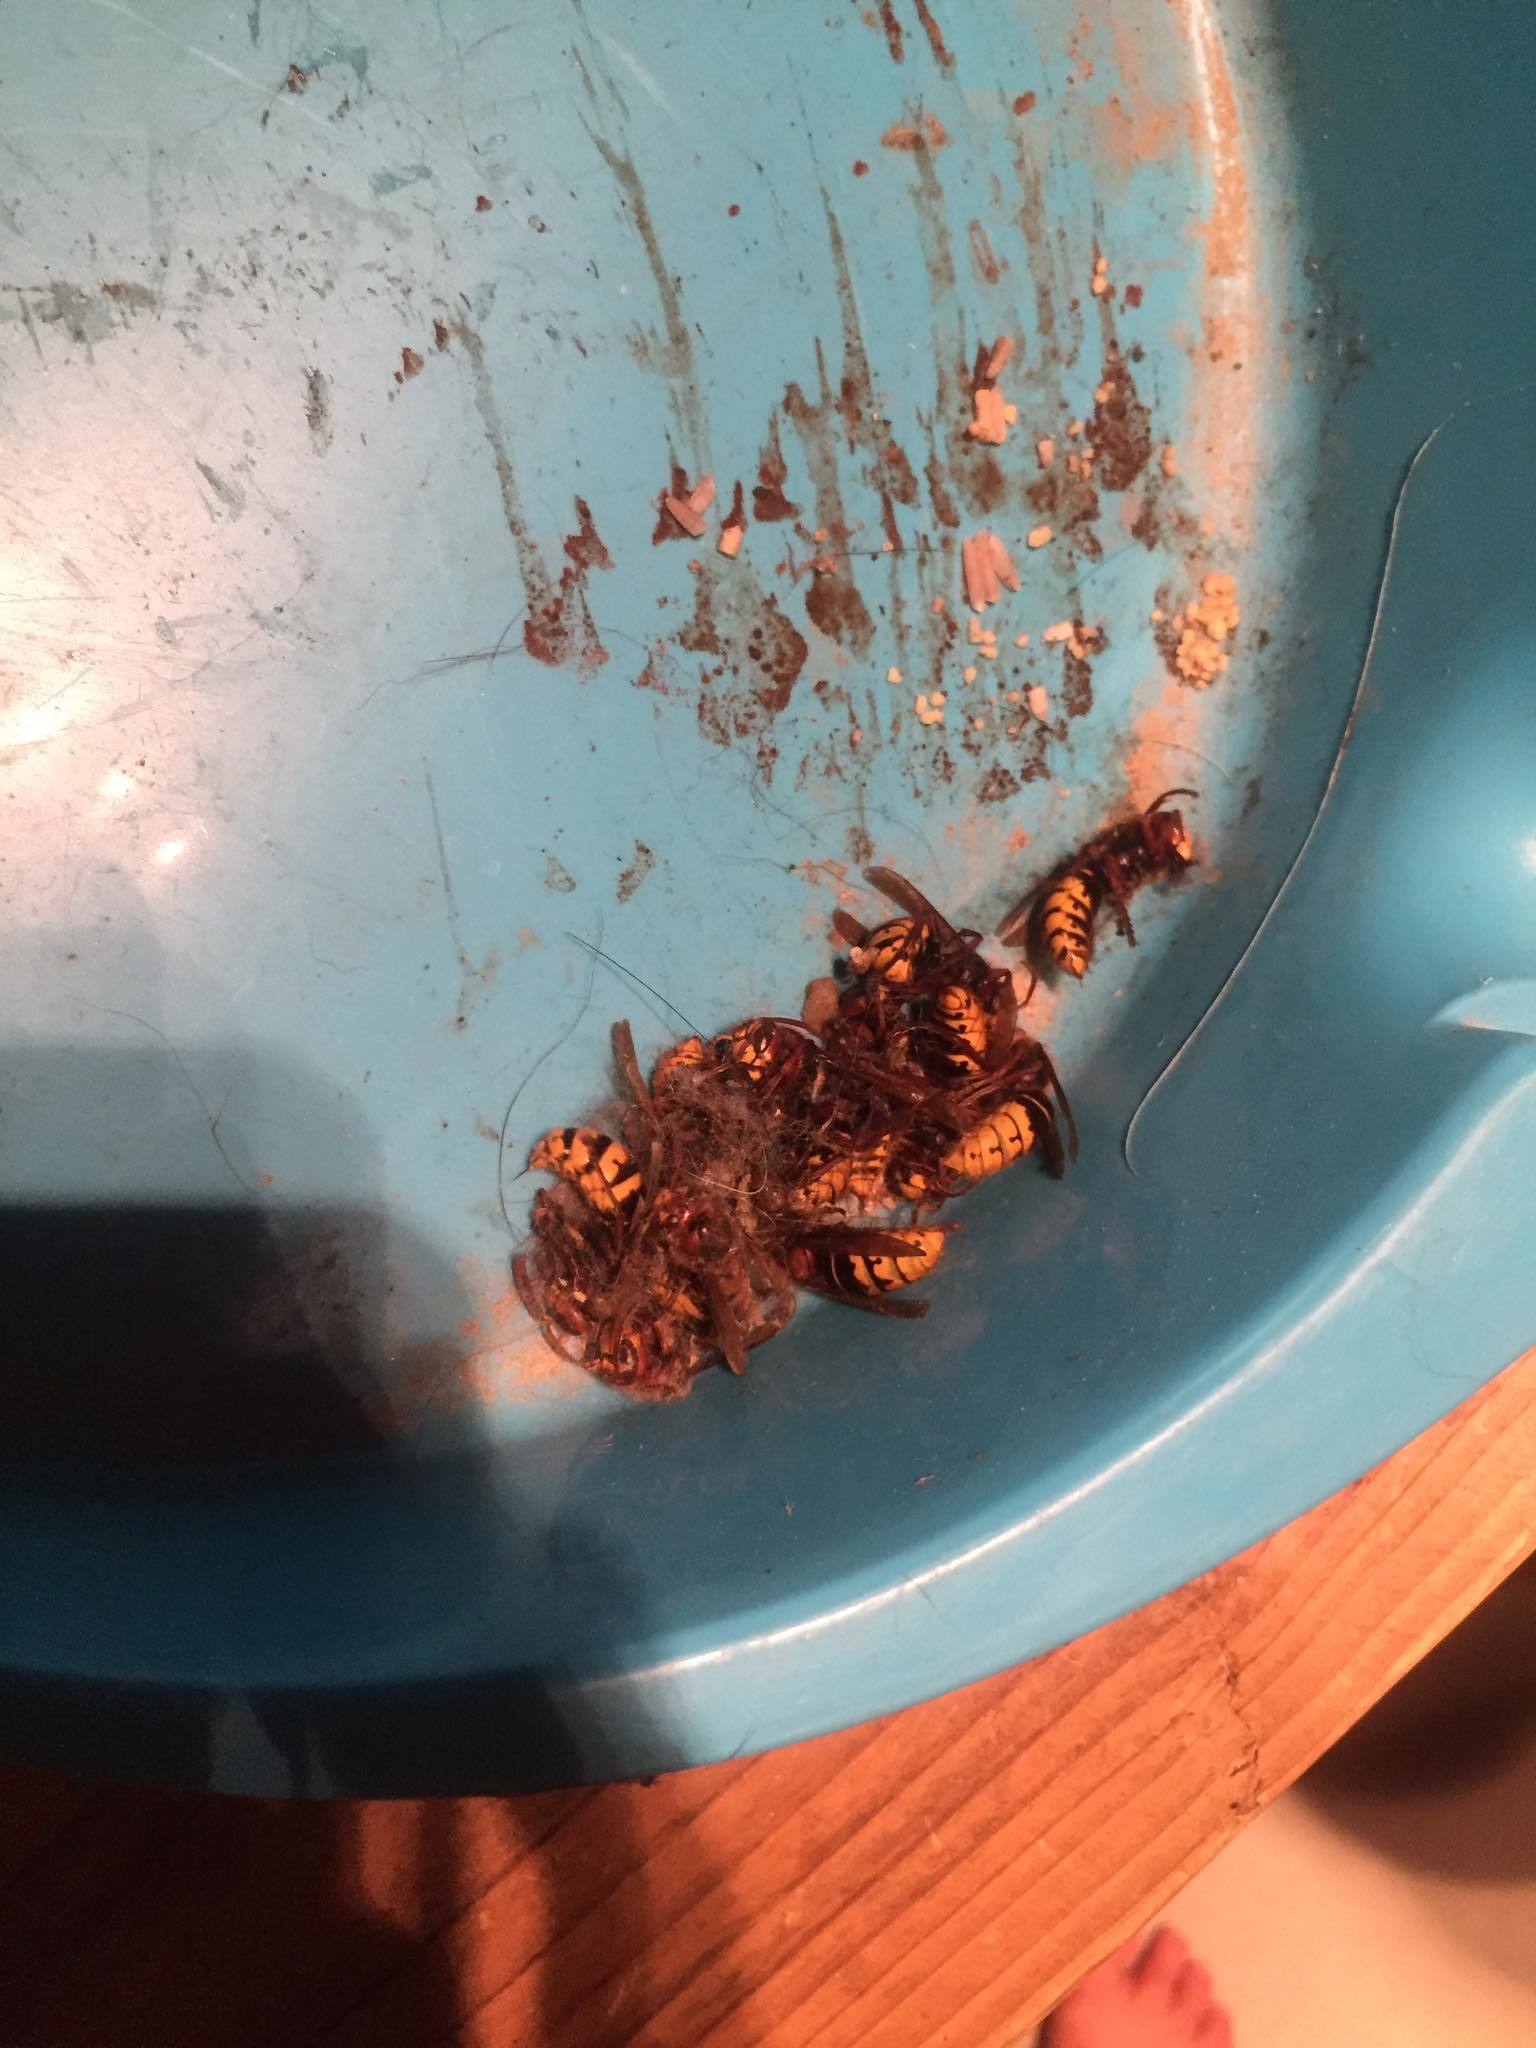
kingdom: Animalia
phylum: Arthropoda
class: Insecta
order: Hymenoptera
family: Vespidae
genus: Vespa
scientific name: Vespa crabro
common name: Hornet
